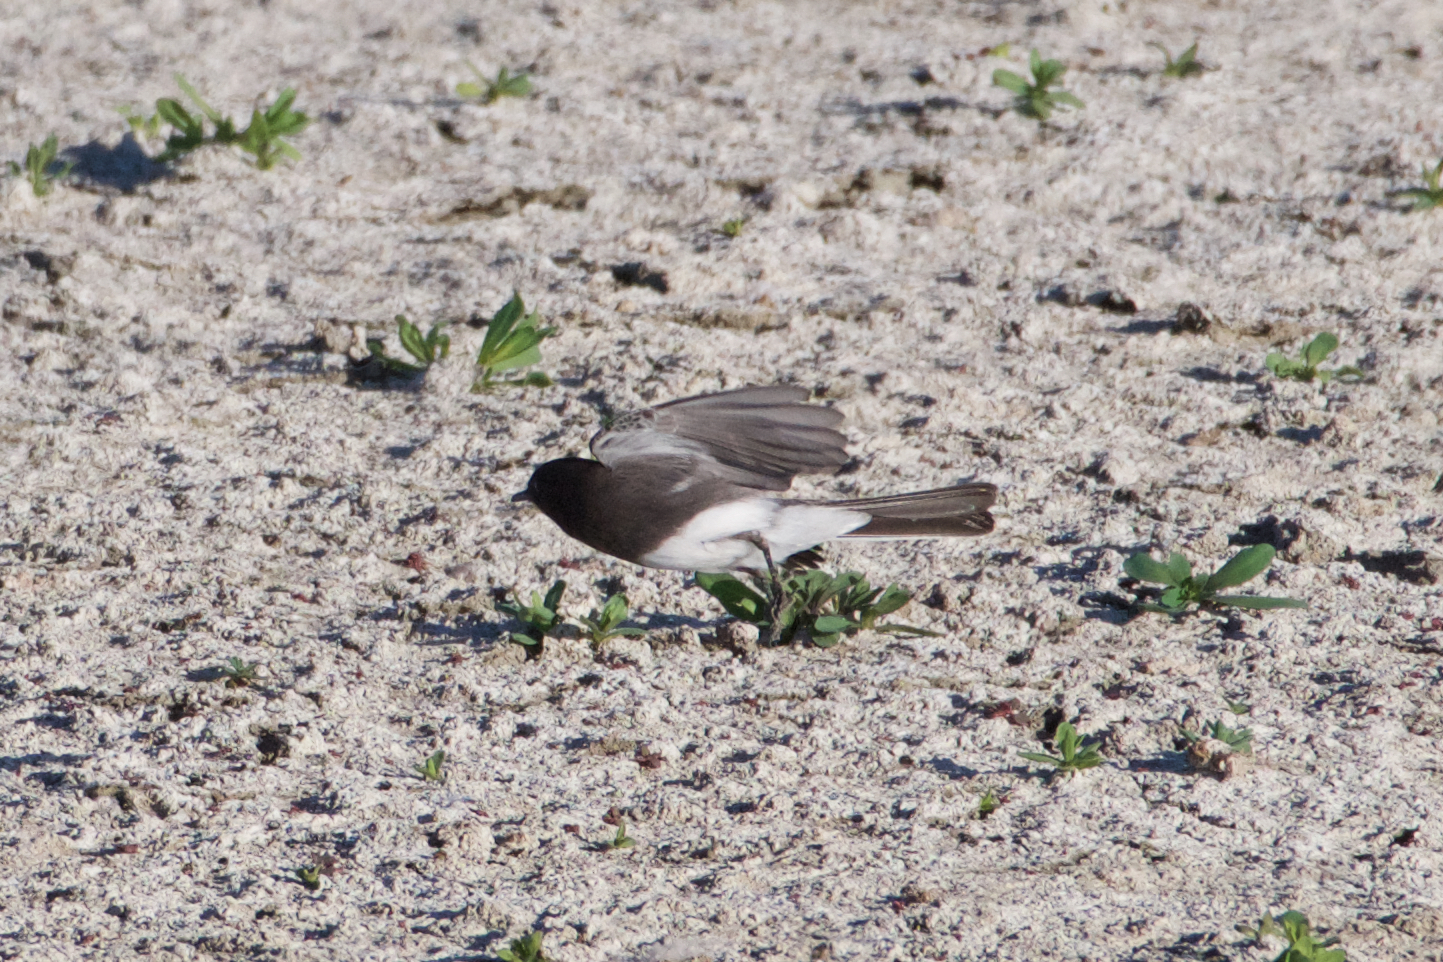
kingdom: Animalia
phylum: Chordata
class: Aves
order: Passeriformes
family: Tyrannidae
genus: Sayornis
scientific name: Sayornis nigricans
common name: Black phoebe
